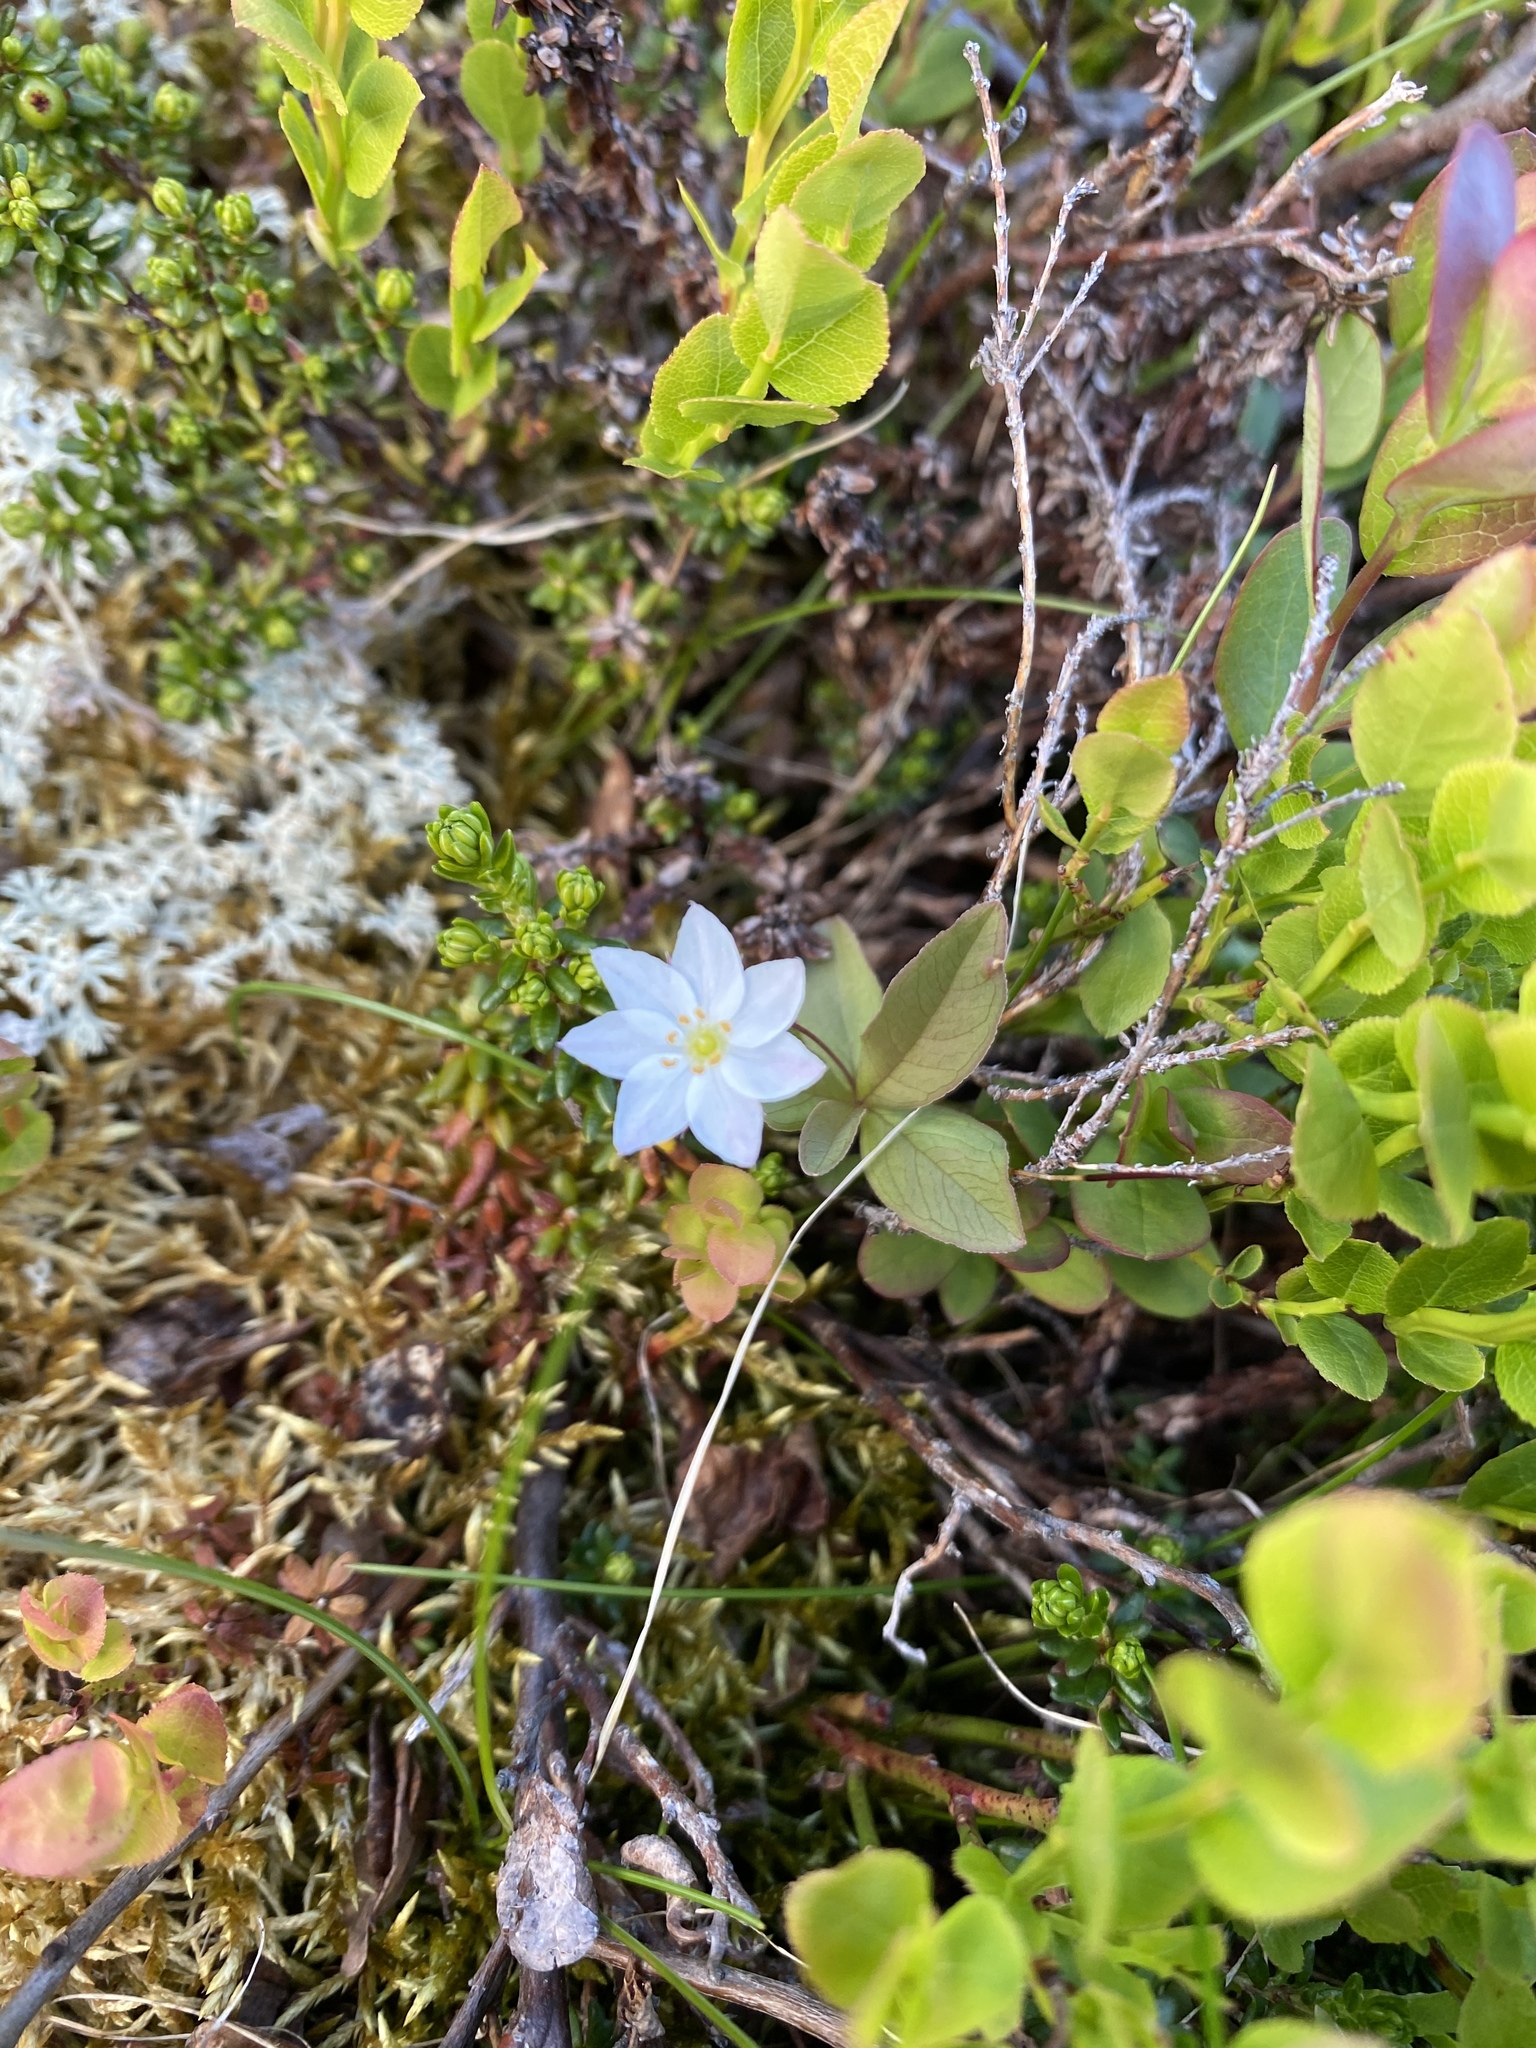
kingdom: Plantae
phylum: Tracheophyta
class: Magnoliopsida
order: Ericales
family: Primulaceae
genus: Lysimachia
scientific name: Lysimachia europaea
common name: Arctic starflower
